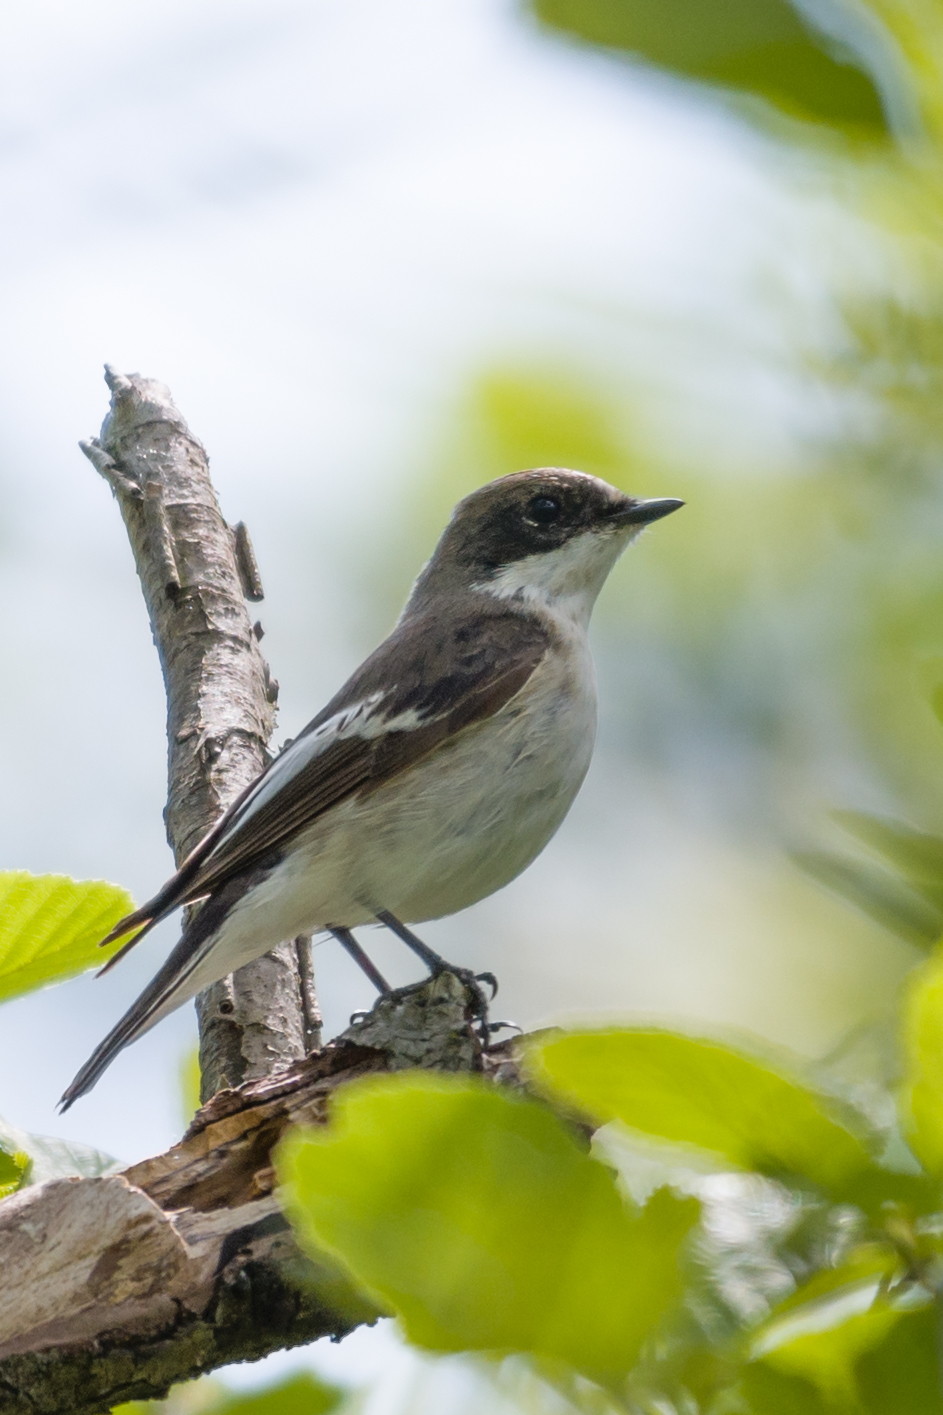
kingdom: Animalia
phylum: Chordata
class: Aves
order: Passeriformes
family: Muscicapidae
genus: Ficedula
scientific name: Ficedula hypoleuca
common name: European pied flycatcher
